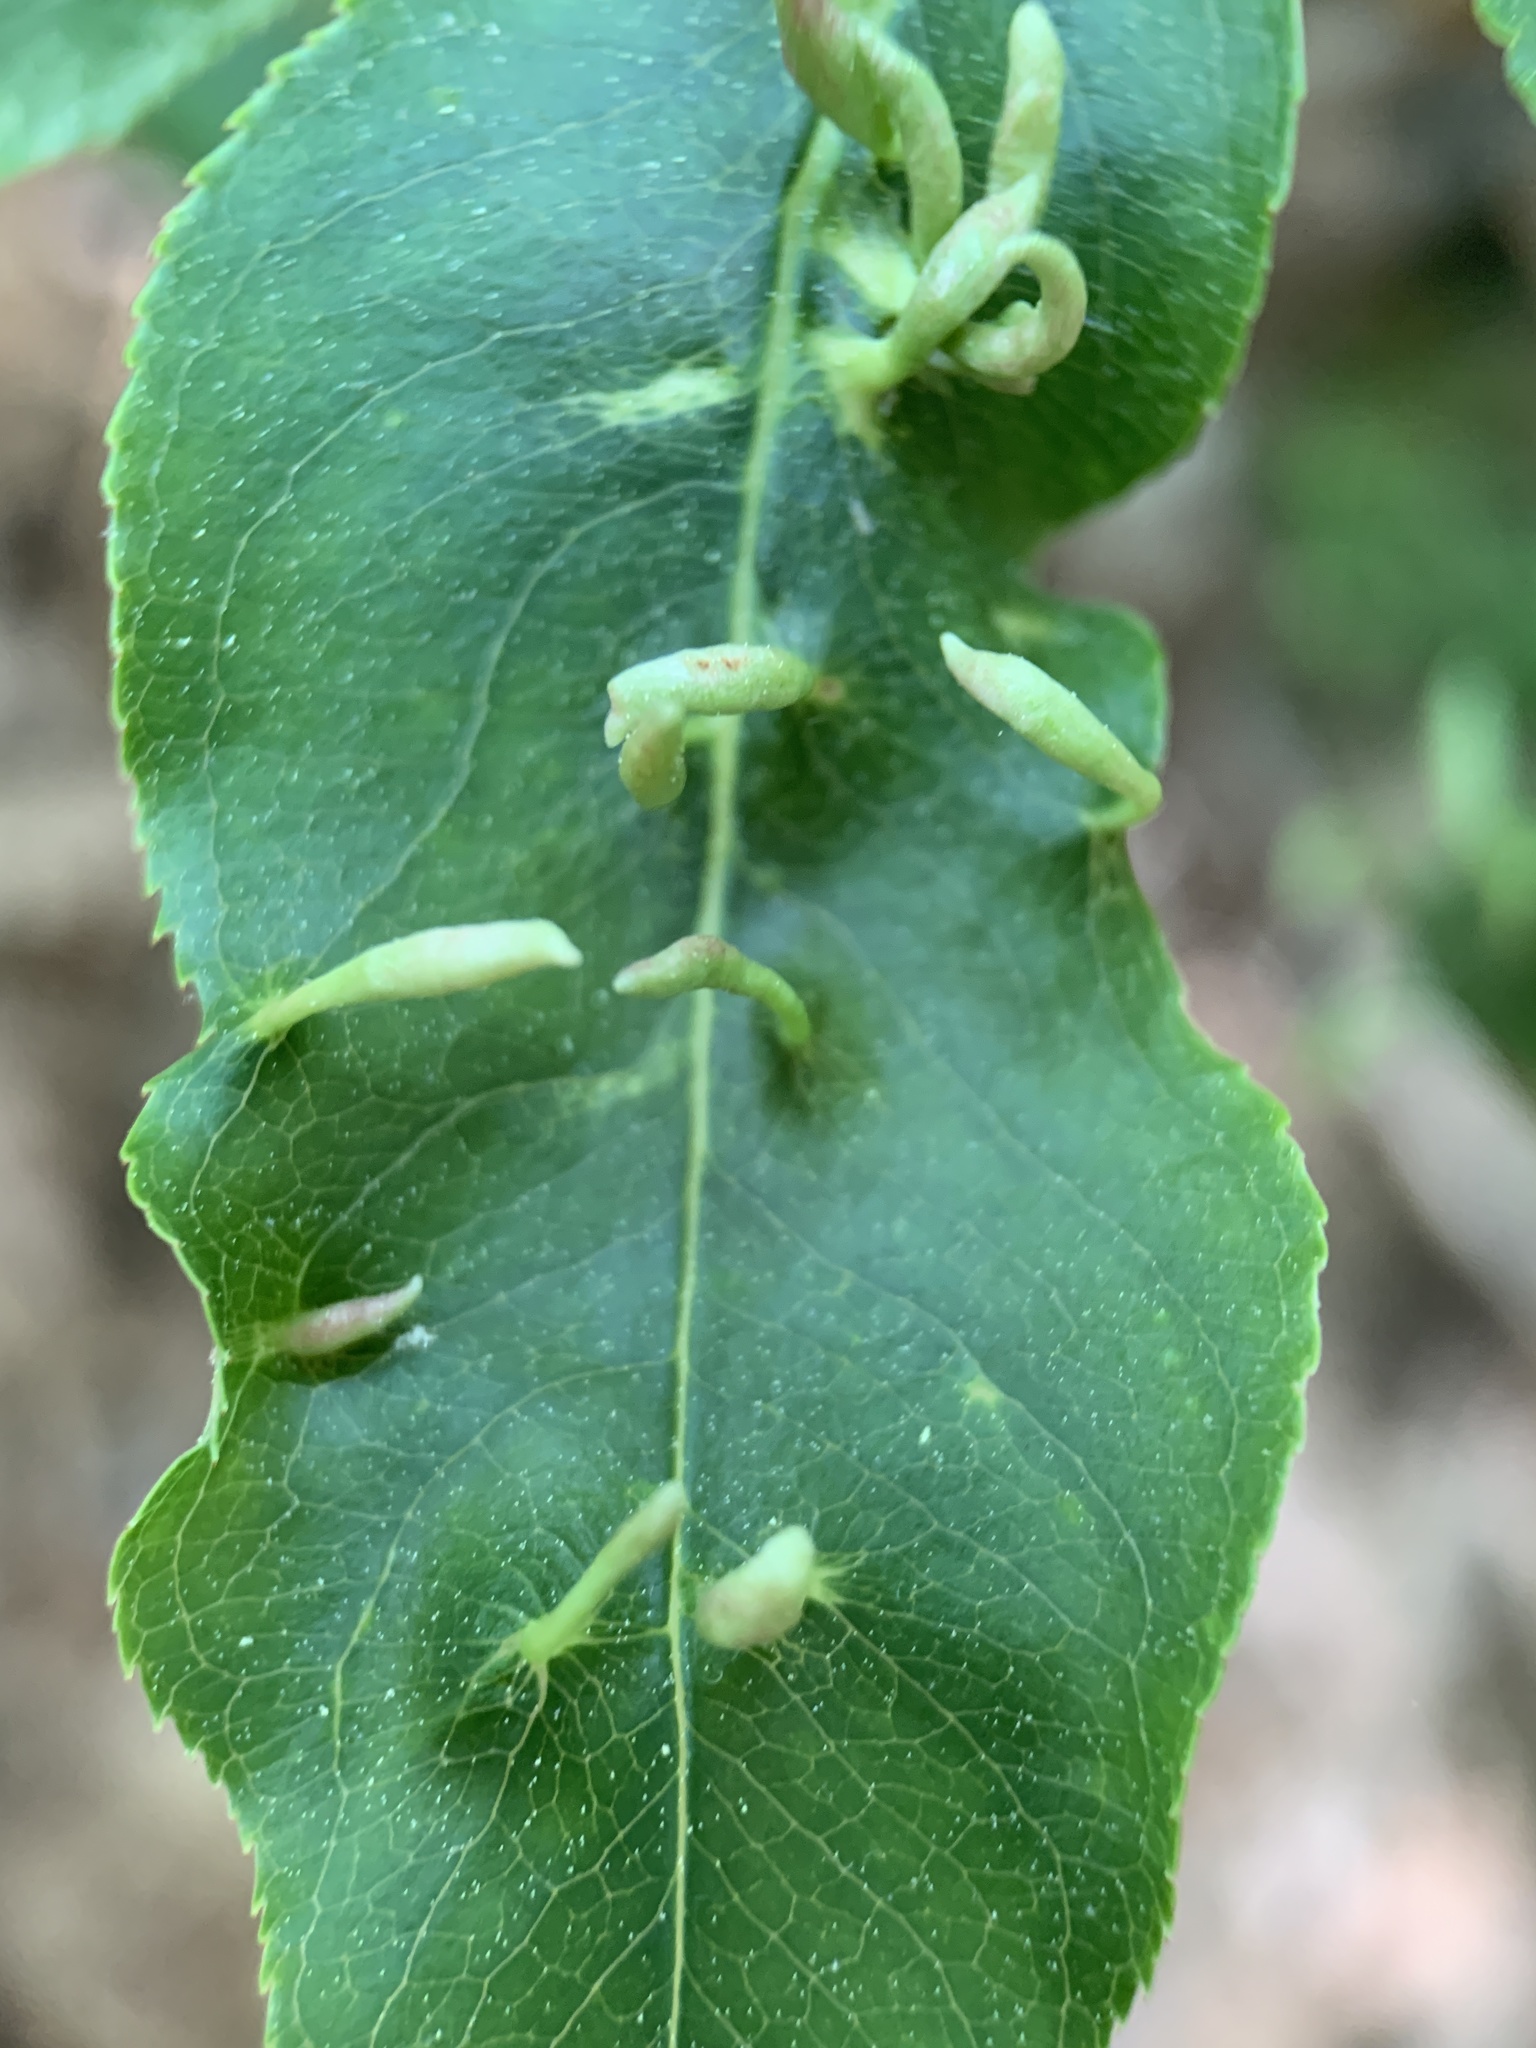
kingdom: Animalia
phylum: Arthropoda
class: Arachnida
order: Trombidiformes
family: Eriophyidae
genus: Eriophyes
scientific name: Eriophyes
